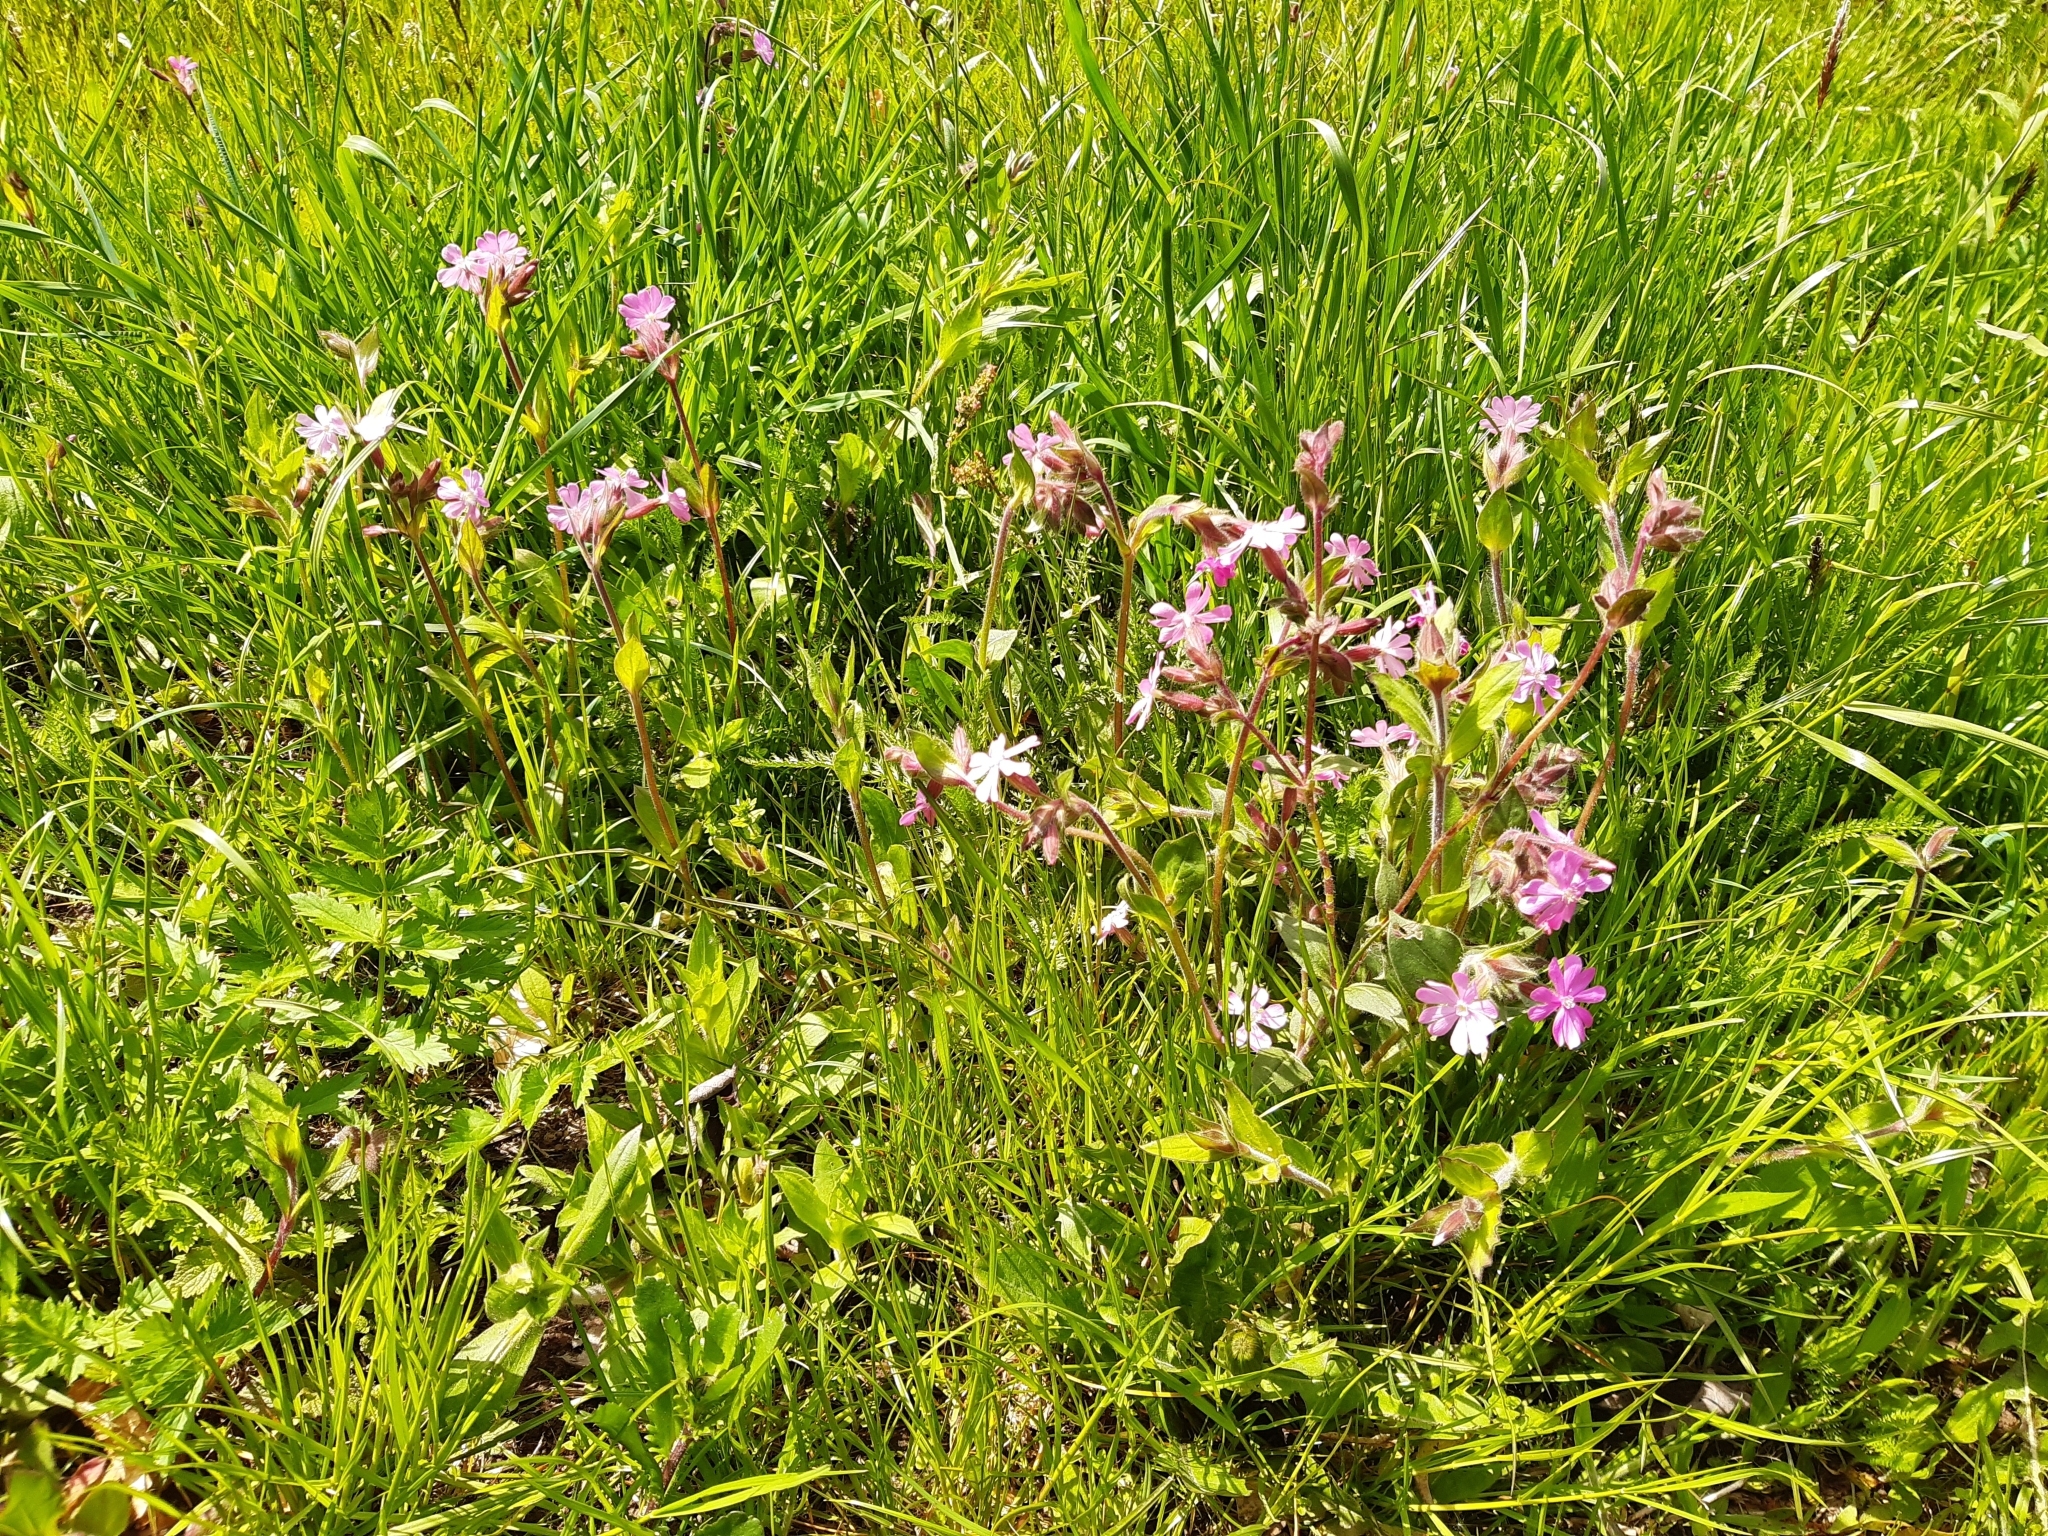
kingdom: Plantae
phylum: Tracheophyta
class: Magnoliopsida
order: Caryophyllales
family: Caryophyllaceae
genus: Silene
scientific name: Silene dioica
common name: Red campion
